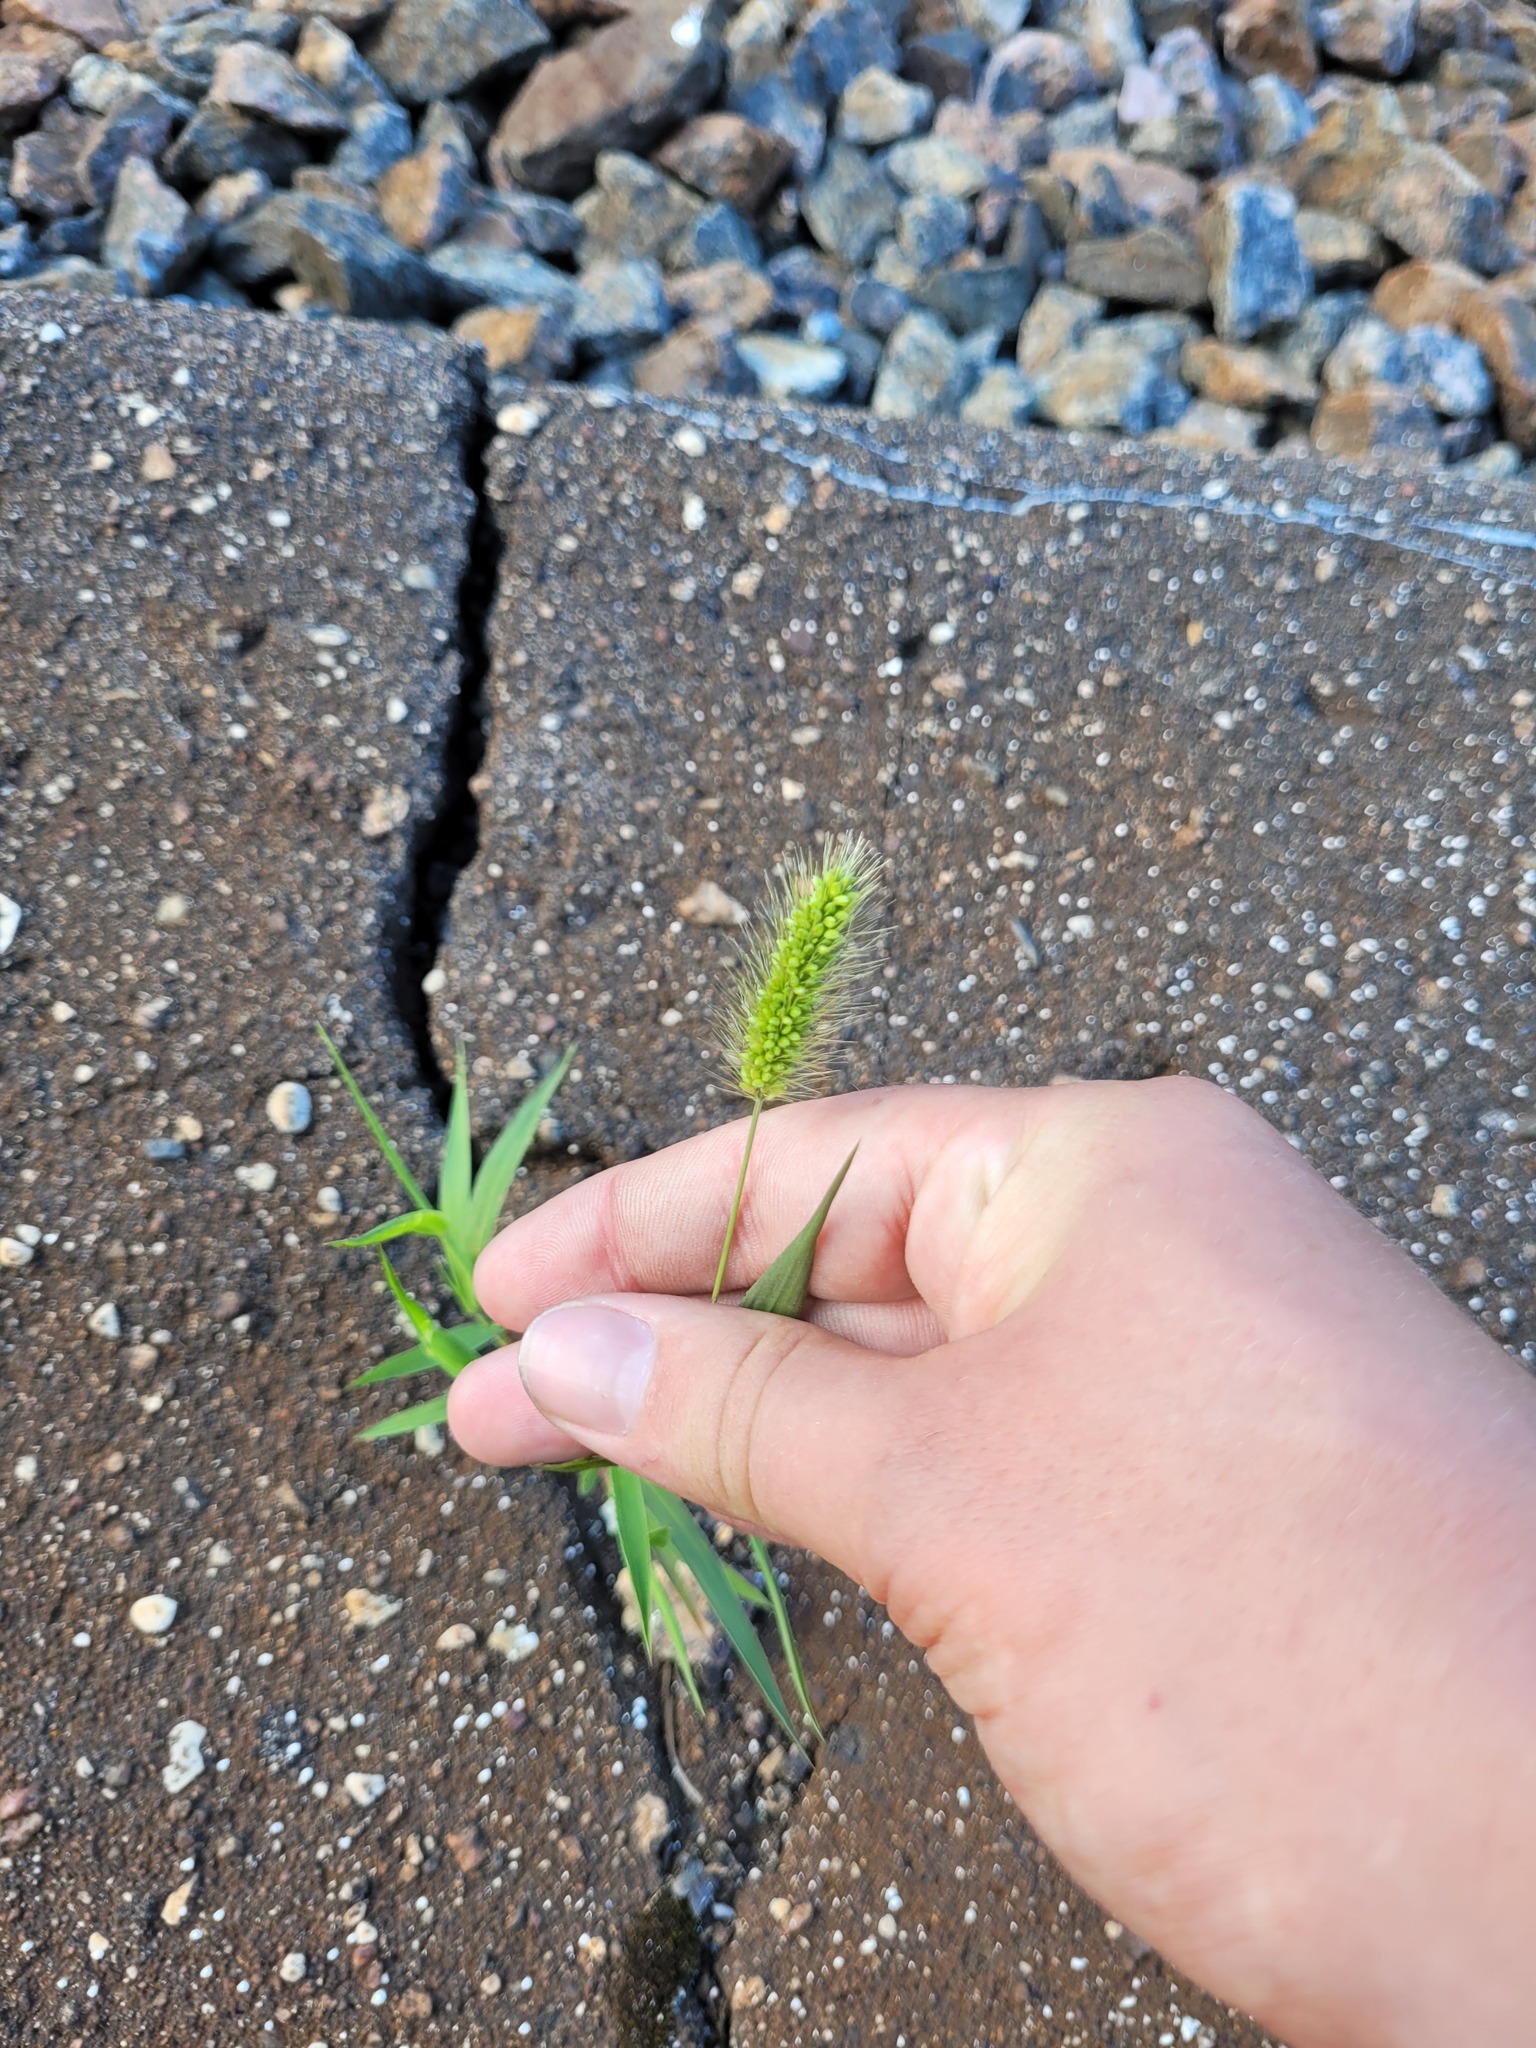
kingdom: Plantae
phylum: Tracheophyta
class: Liliopsida
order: Poales
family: Poaceae
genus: Setaria
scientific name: Setaria viridis
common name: Green bristlegrass
